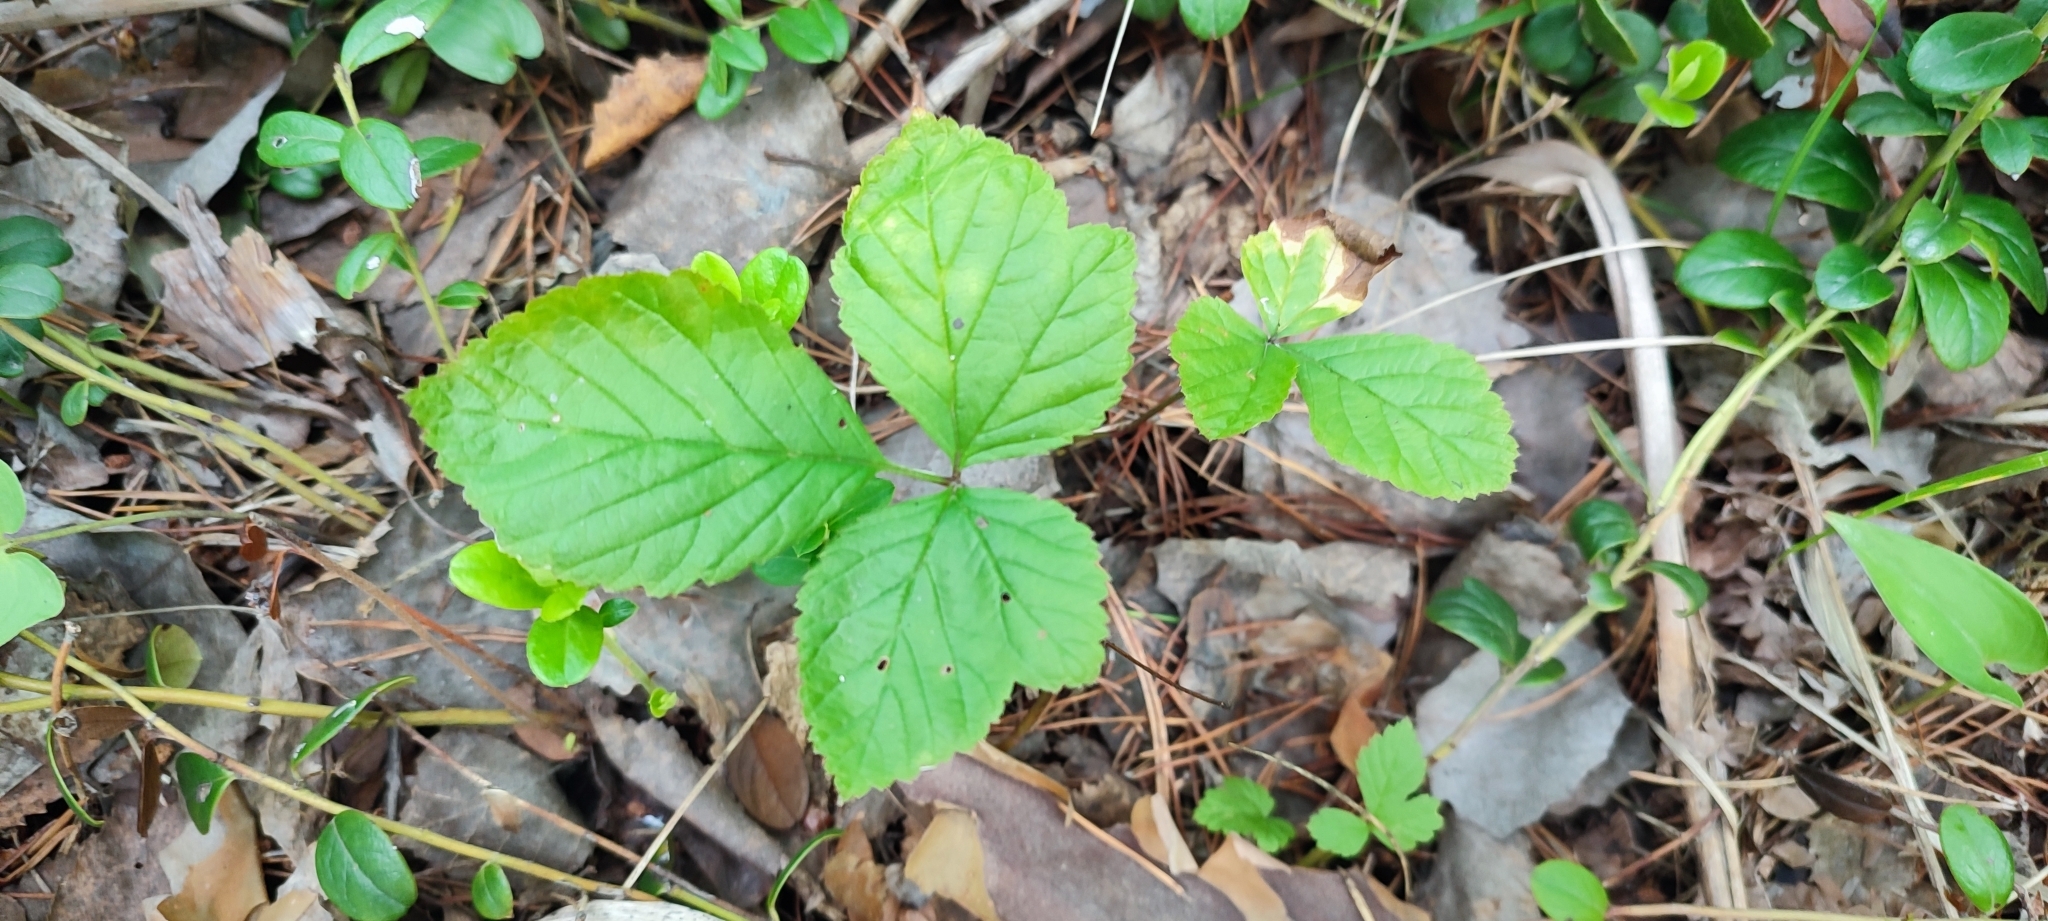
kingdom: Plantae
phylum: Tracheophyta
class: Magnoliopsida
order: Rosales
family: Rosaceae
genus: Rubus
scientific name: Rubus saxatilis
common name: Stone bramble
